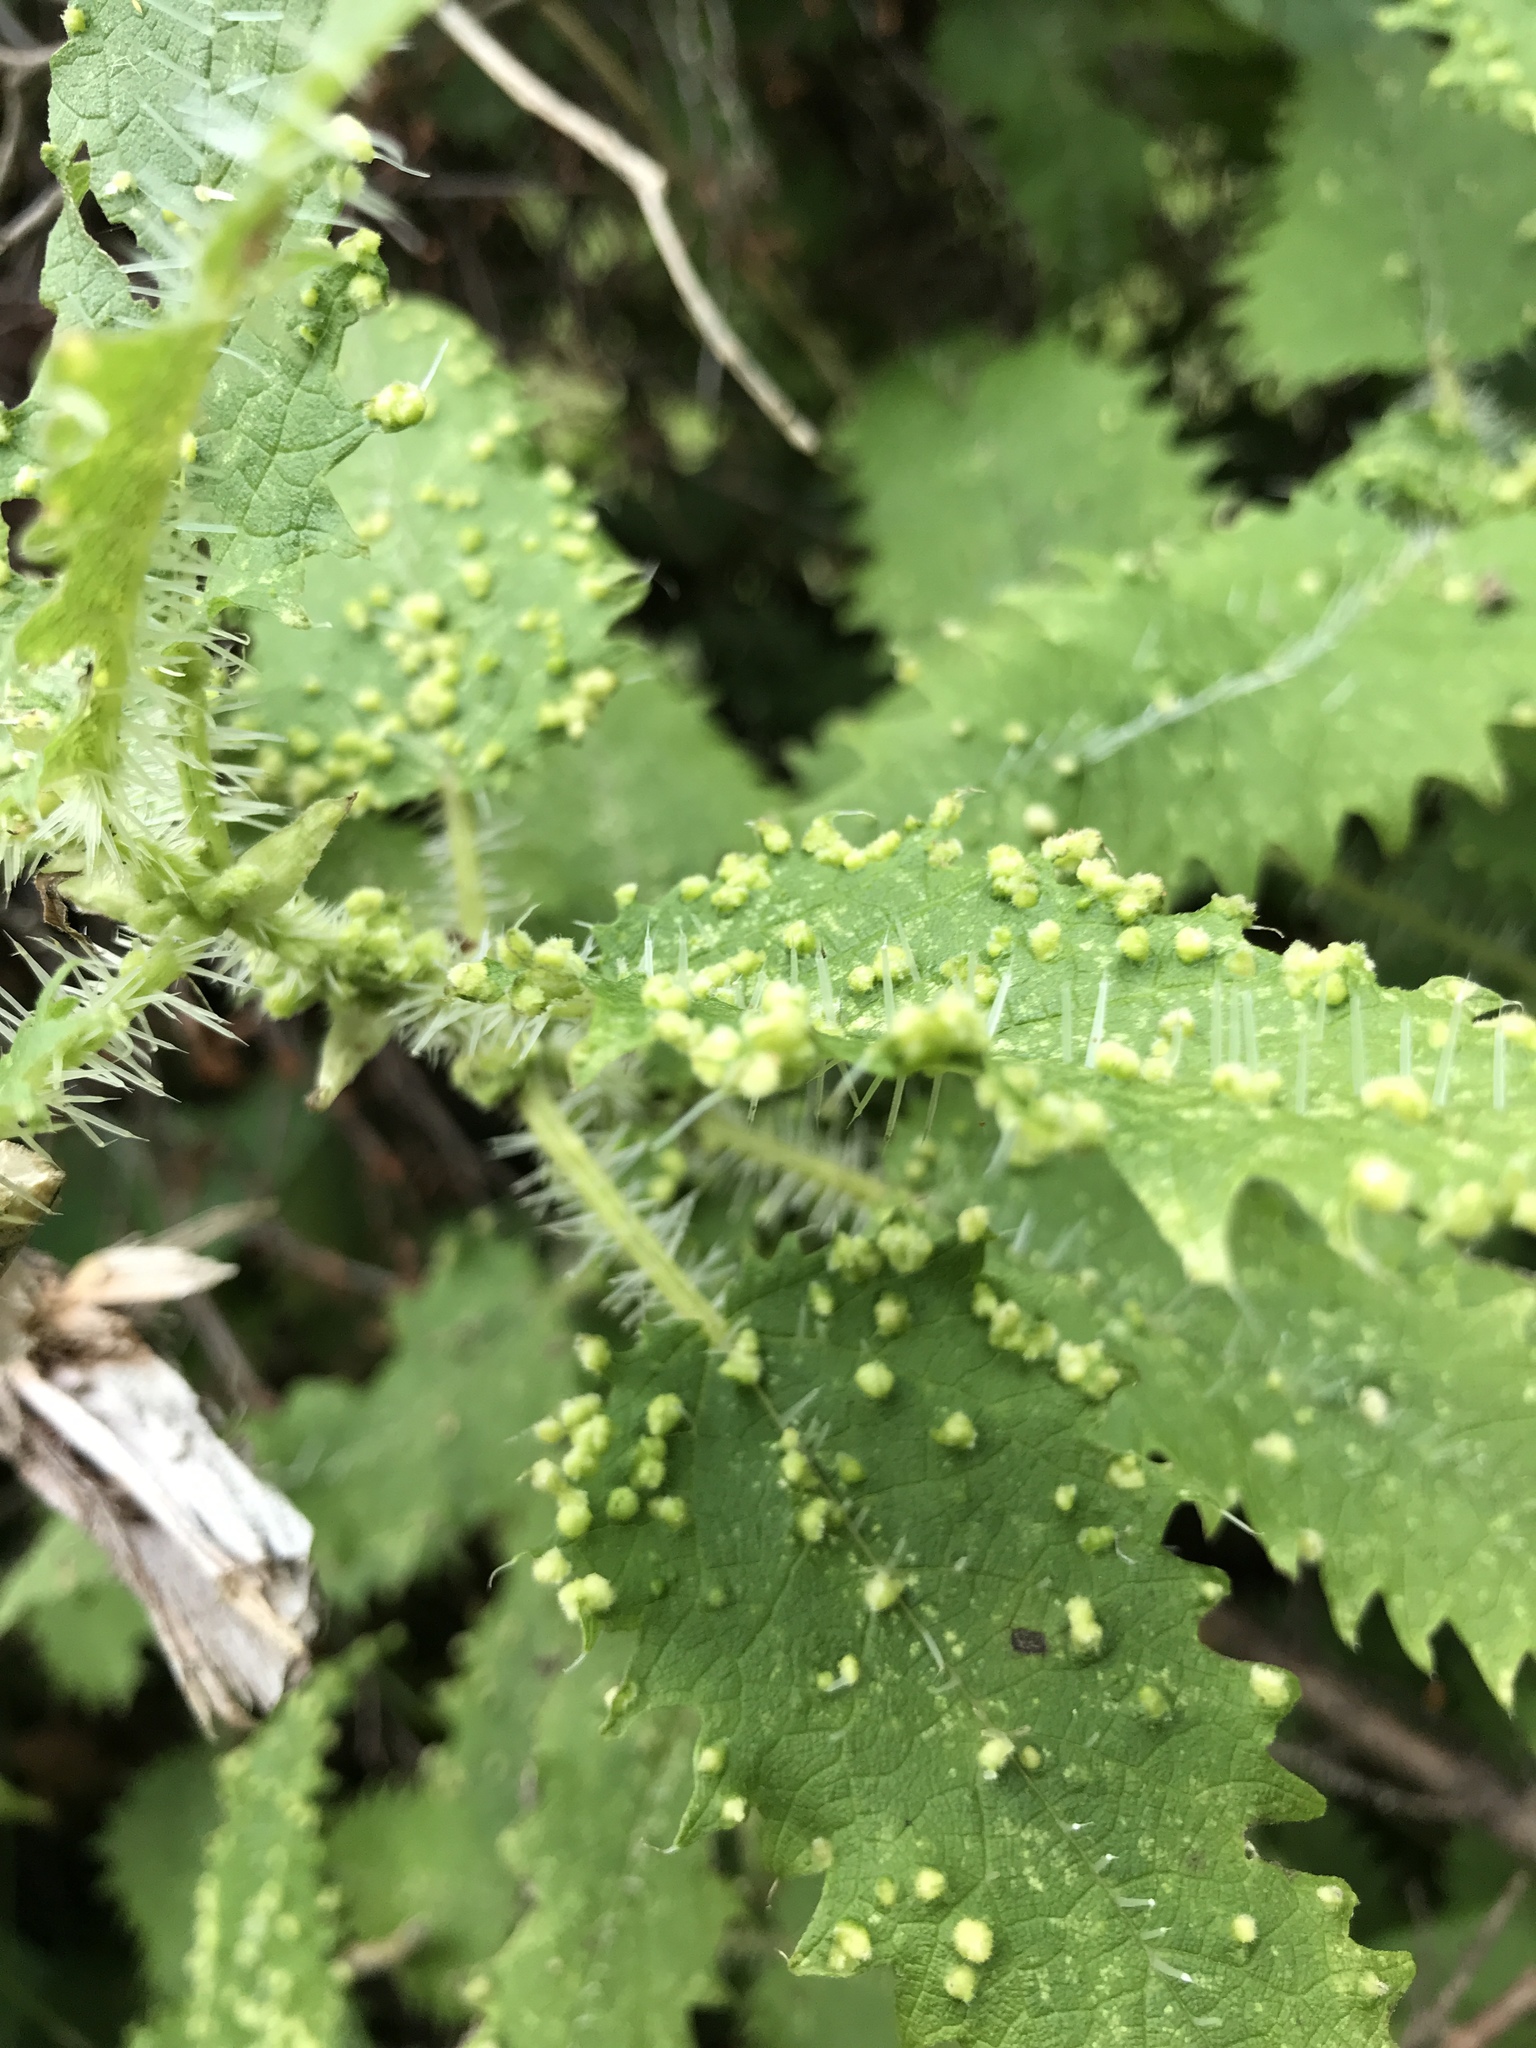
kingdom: Animalia
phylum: Arthropoda
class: Arachnida
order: Trombidiformes
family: Eriophyidae
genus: Vittacus
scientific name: Vittacus
